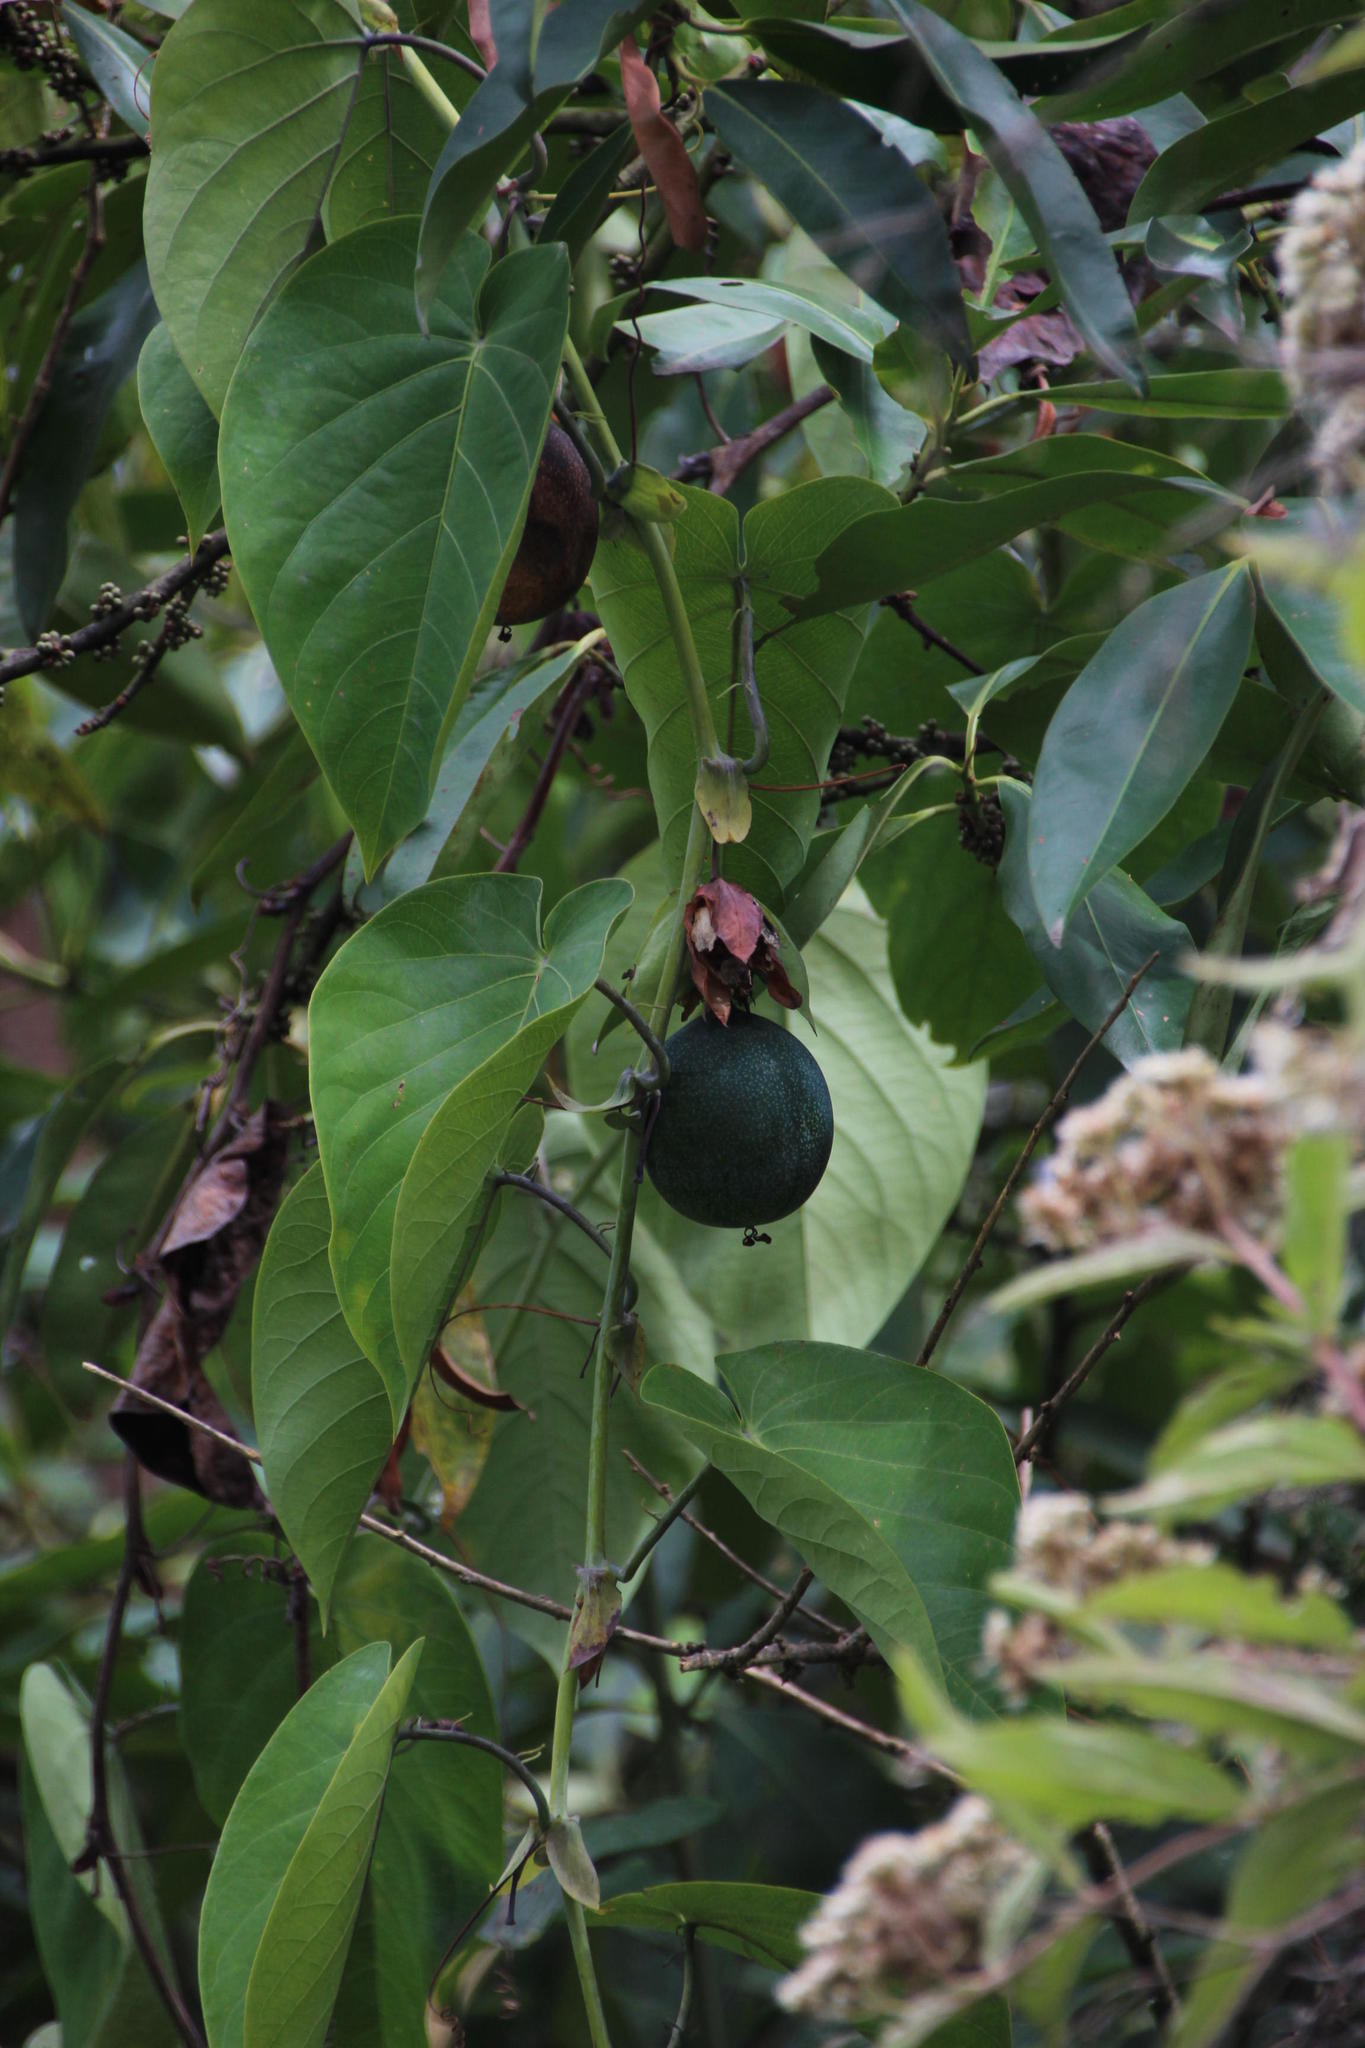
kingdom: Plantae
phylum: Tracheophyta
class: Magnoliopsida
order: Malpighiales
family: Passifloraceae
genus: Passiflora
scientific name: Passiflora ligularis
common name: Sweet granadilla
